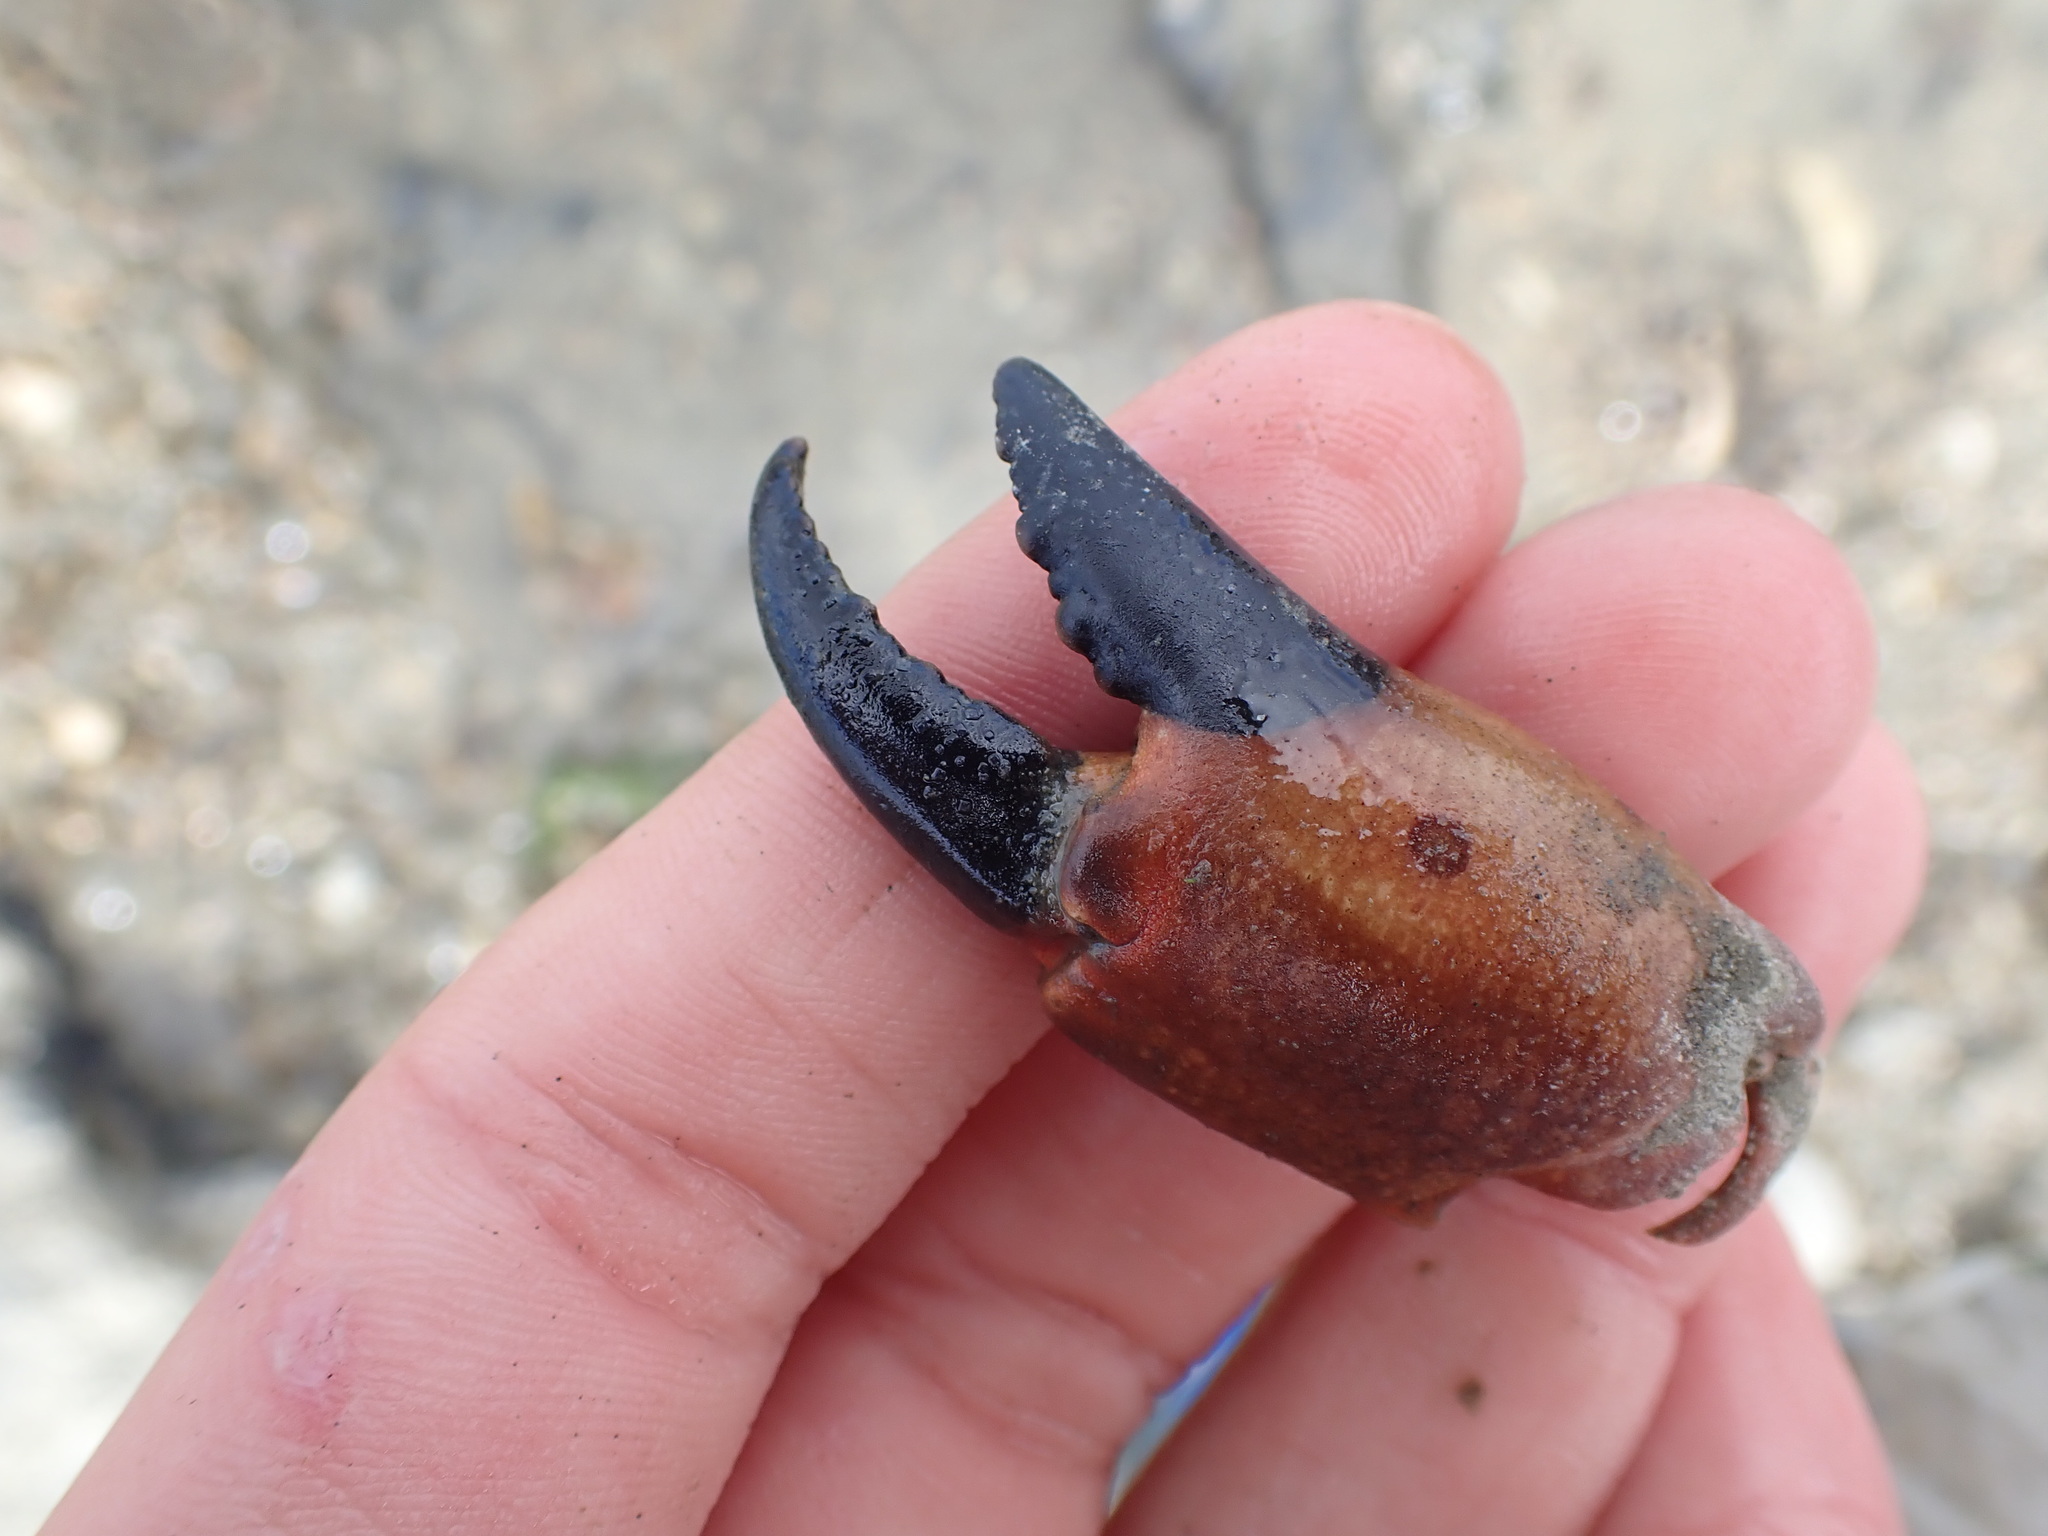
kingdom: Animalia
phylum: Arthropoda
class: Malacostraca
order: Decapoda
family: Oziidae
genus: Ozius
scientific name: Ozius deplanatus
